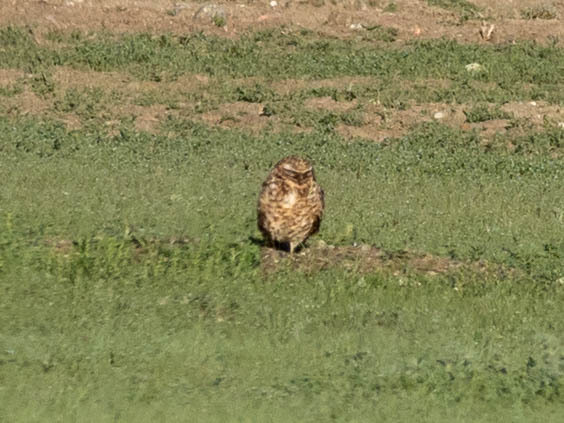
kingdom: Animalia
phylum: Chordata
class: Aves
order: Strigiformes
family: Strigidae
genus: Athene
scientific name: Athene cunicularia
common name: Burrowing owl
